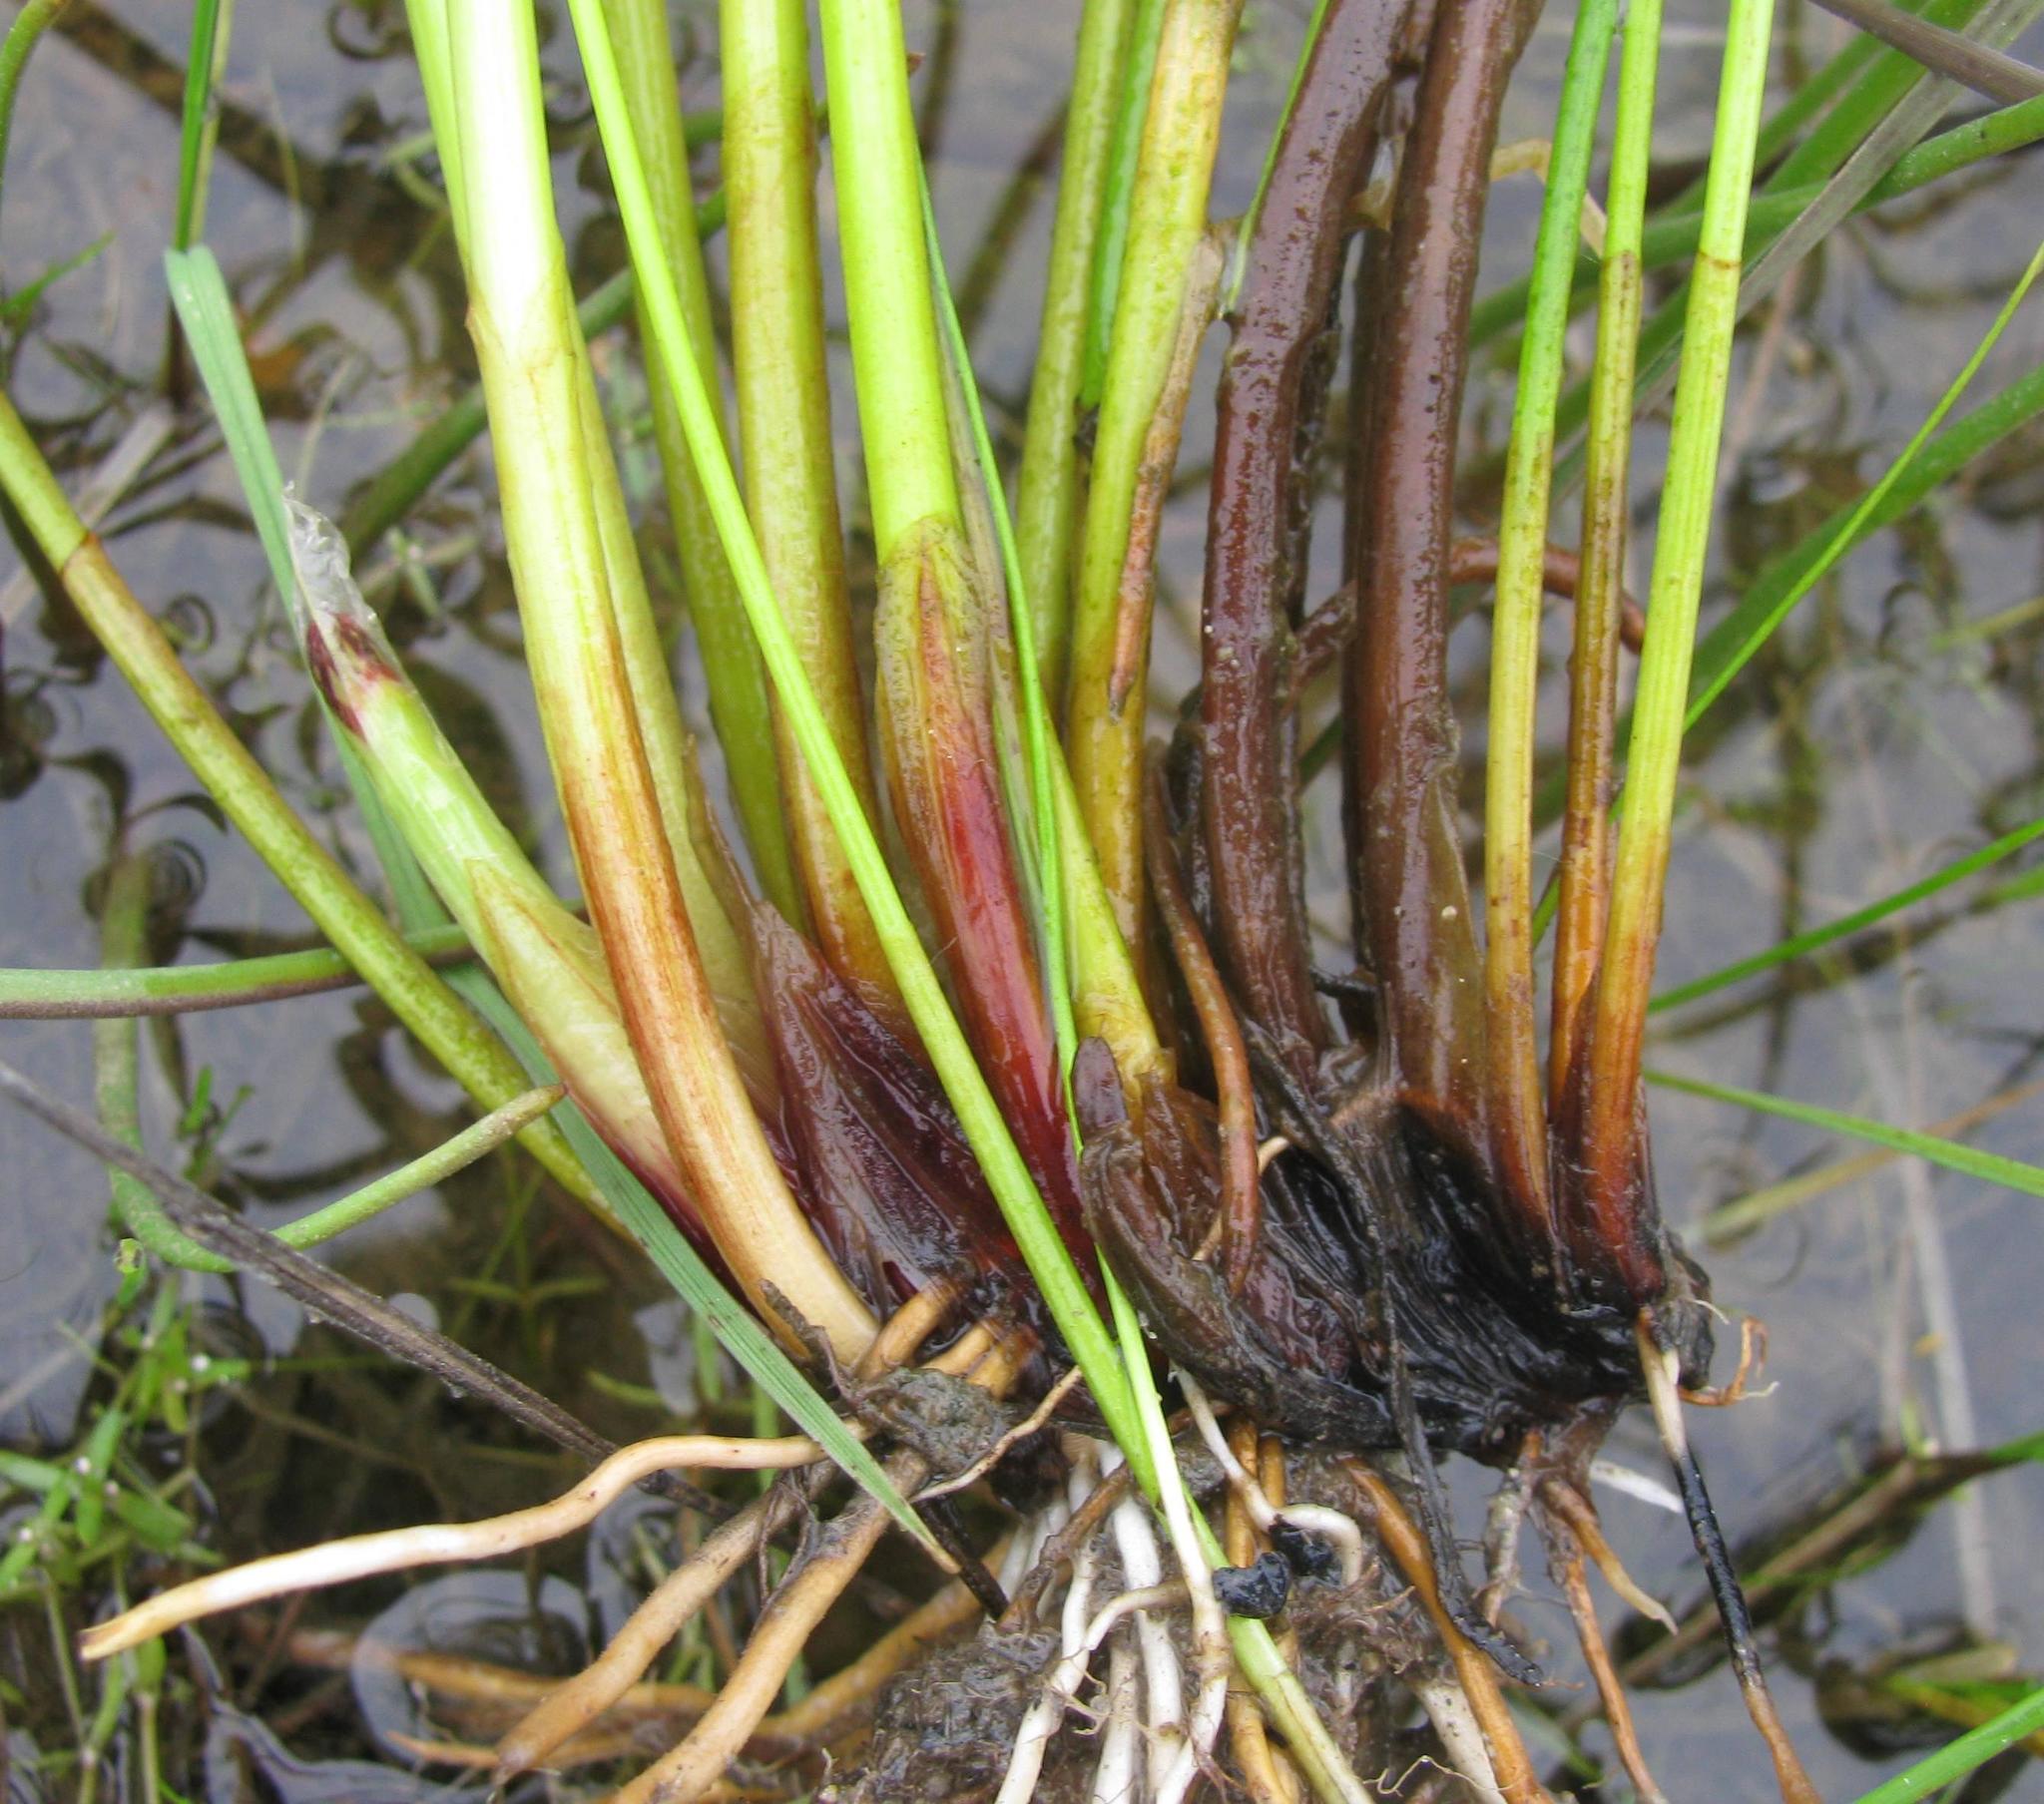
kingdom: Plantae
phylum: Tracheophyta
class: Liliopsida
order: Poales
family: Cyperaceae
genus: Eleocharis
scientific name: Eleocharis limosa
